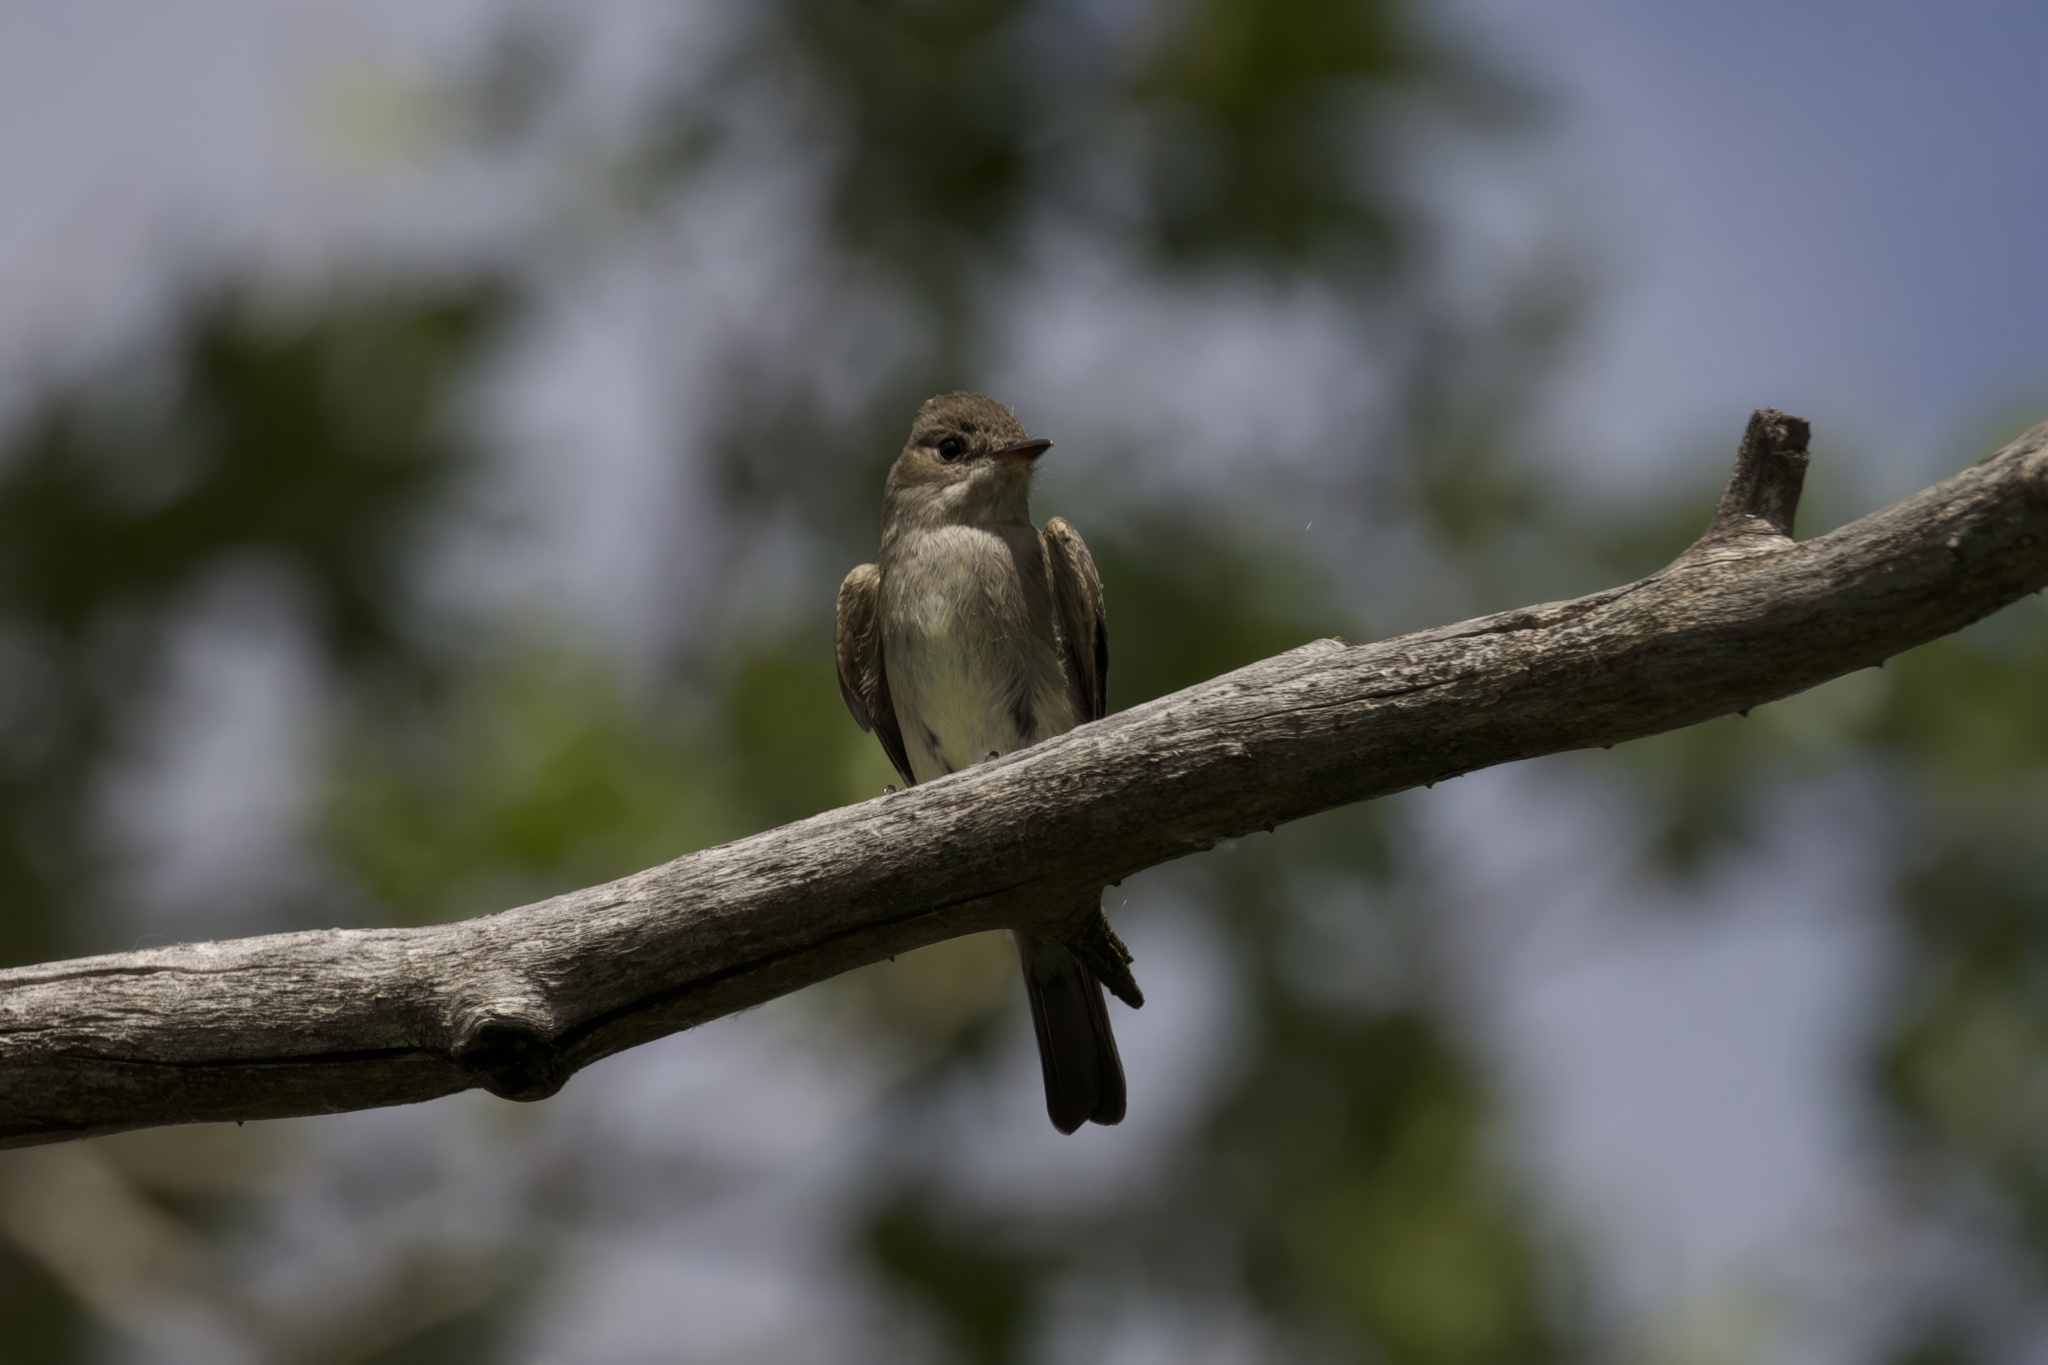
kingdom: Animalia
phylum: Chordata
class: Aves
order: Passeriformes
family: Tyrannidae
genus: Contopus
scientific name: Contopus sordidulus
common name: Western wood-pewee
